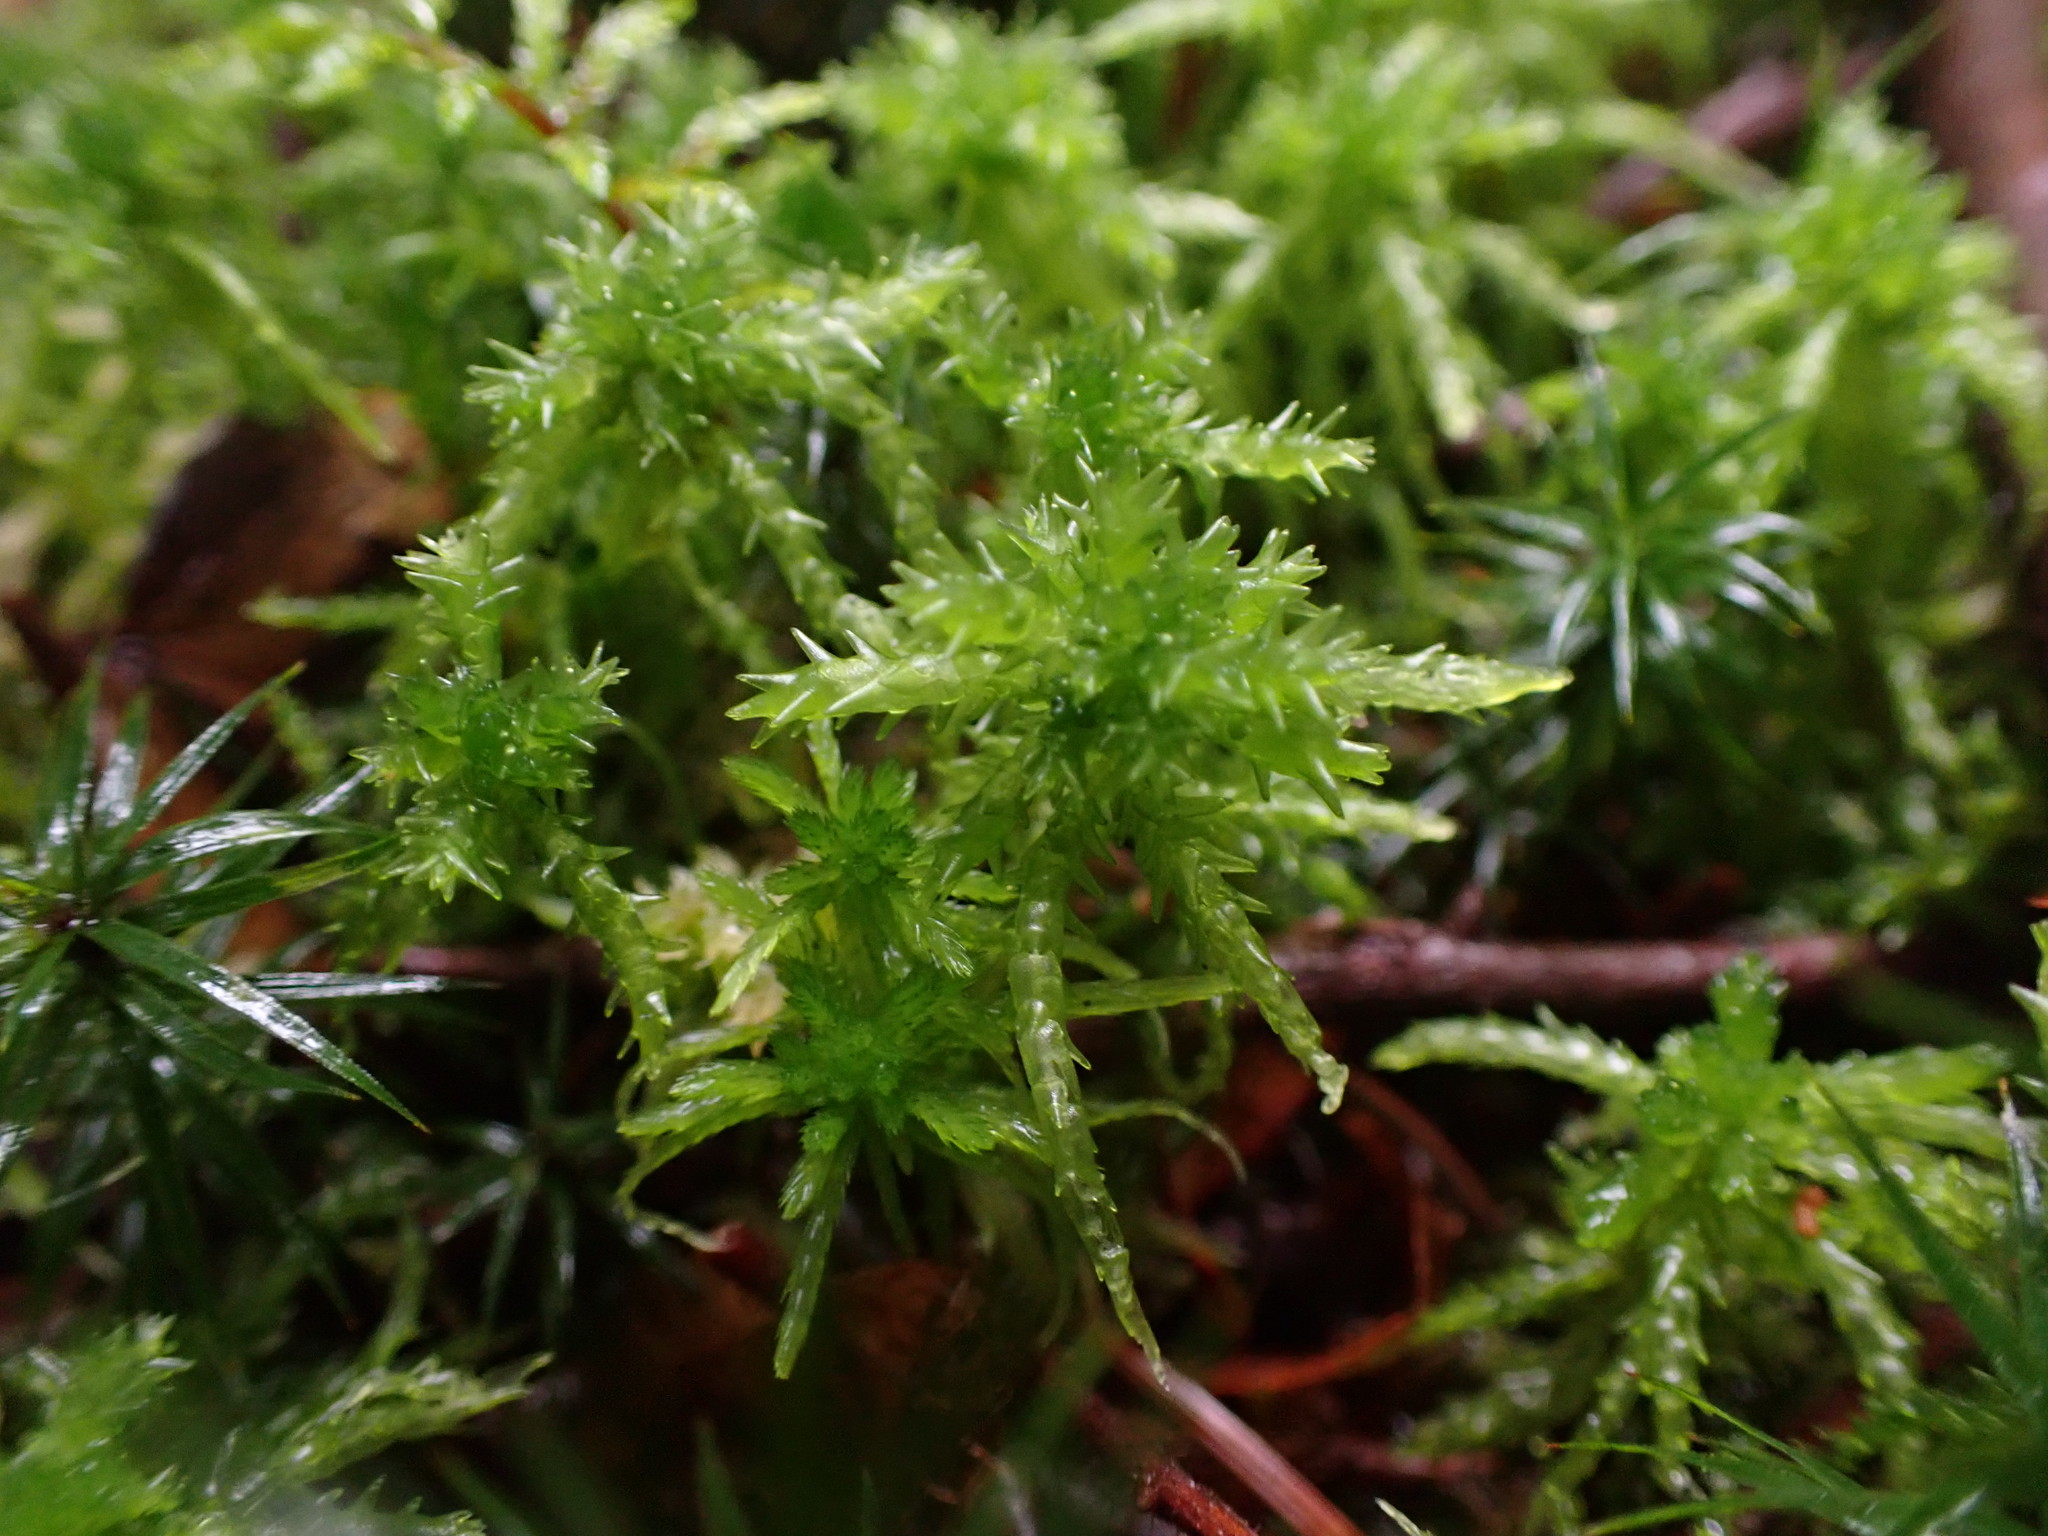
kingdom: Plantae
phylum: Bryophyta
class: Sphagnopsida
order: Sphagnales
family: Sphagnaceae
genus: Sphagnum
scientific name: Sphagnum squarrosum
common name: Shaggy peat moss
